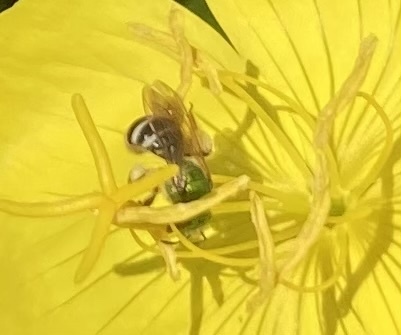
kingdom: Animalia
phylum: Arthropoda
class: Insecta
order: Hymenoptera
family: Halictidae
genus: Agapostemon
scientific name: Agapostemon virescens
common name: Bicolored striped sweat bee
